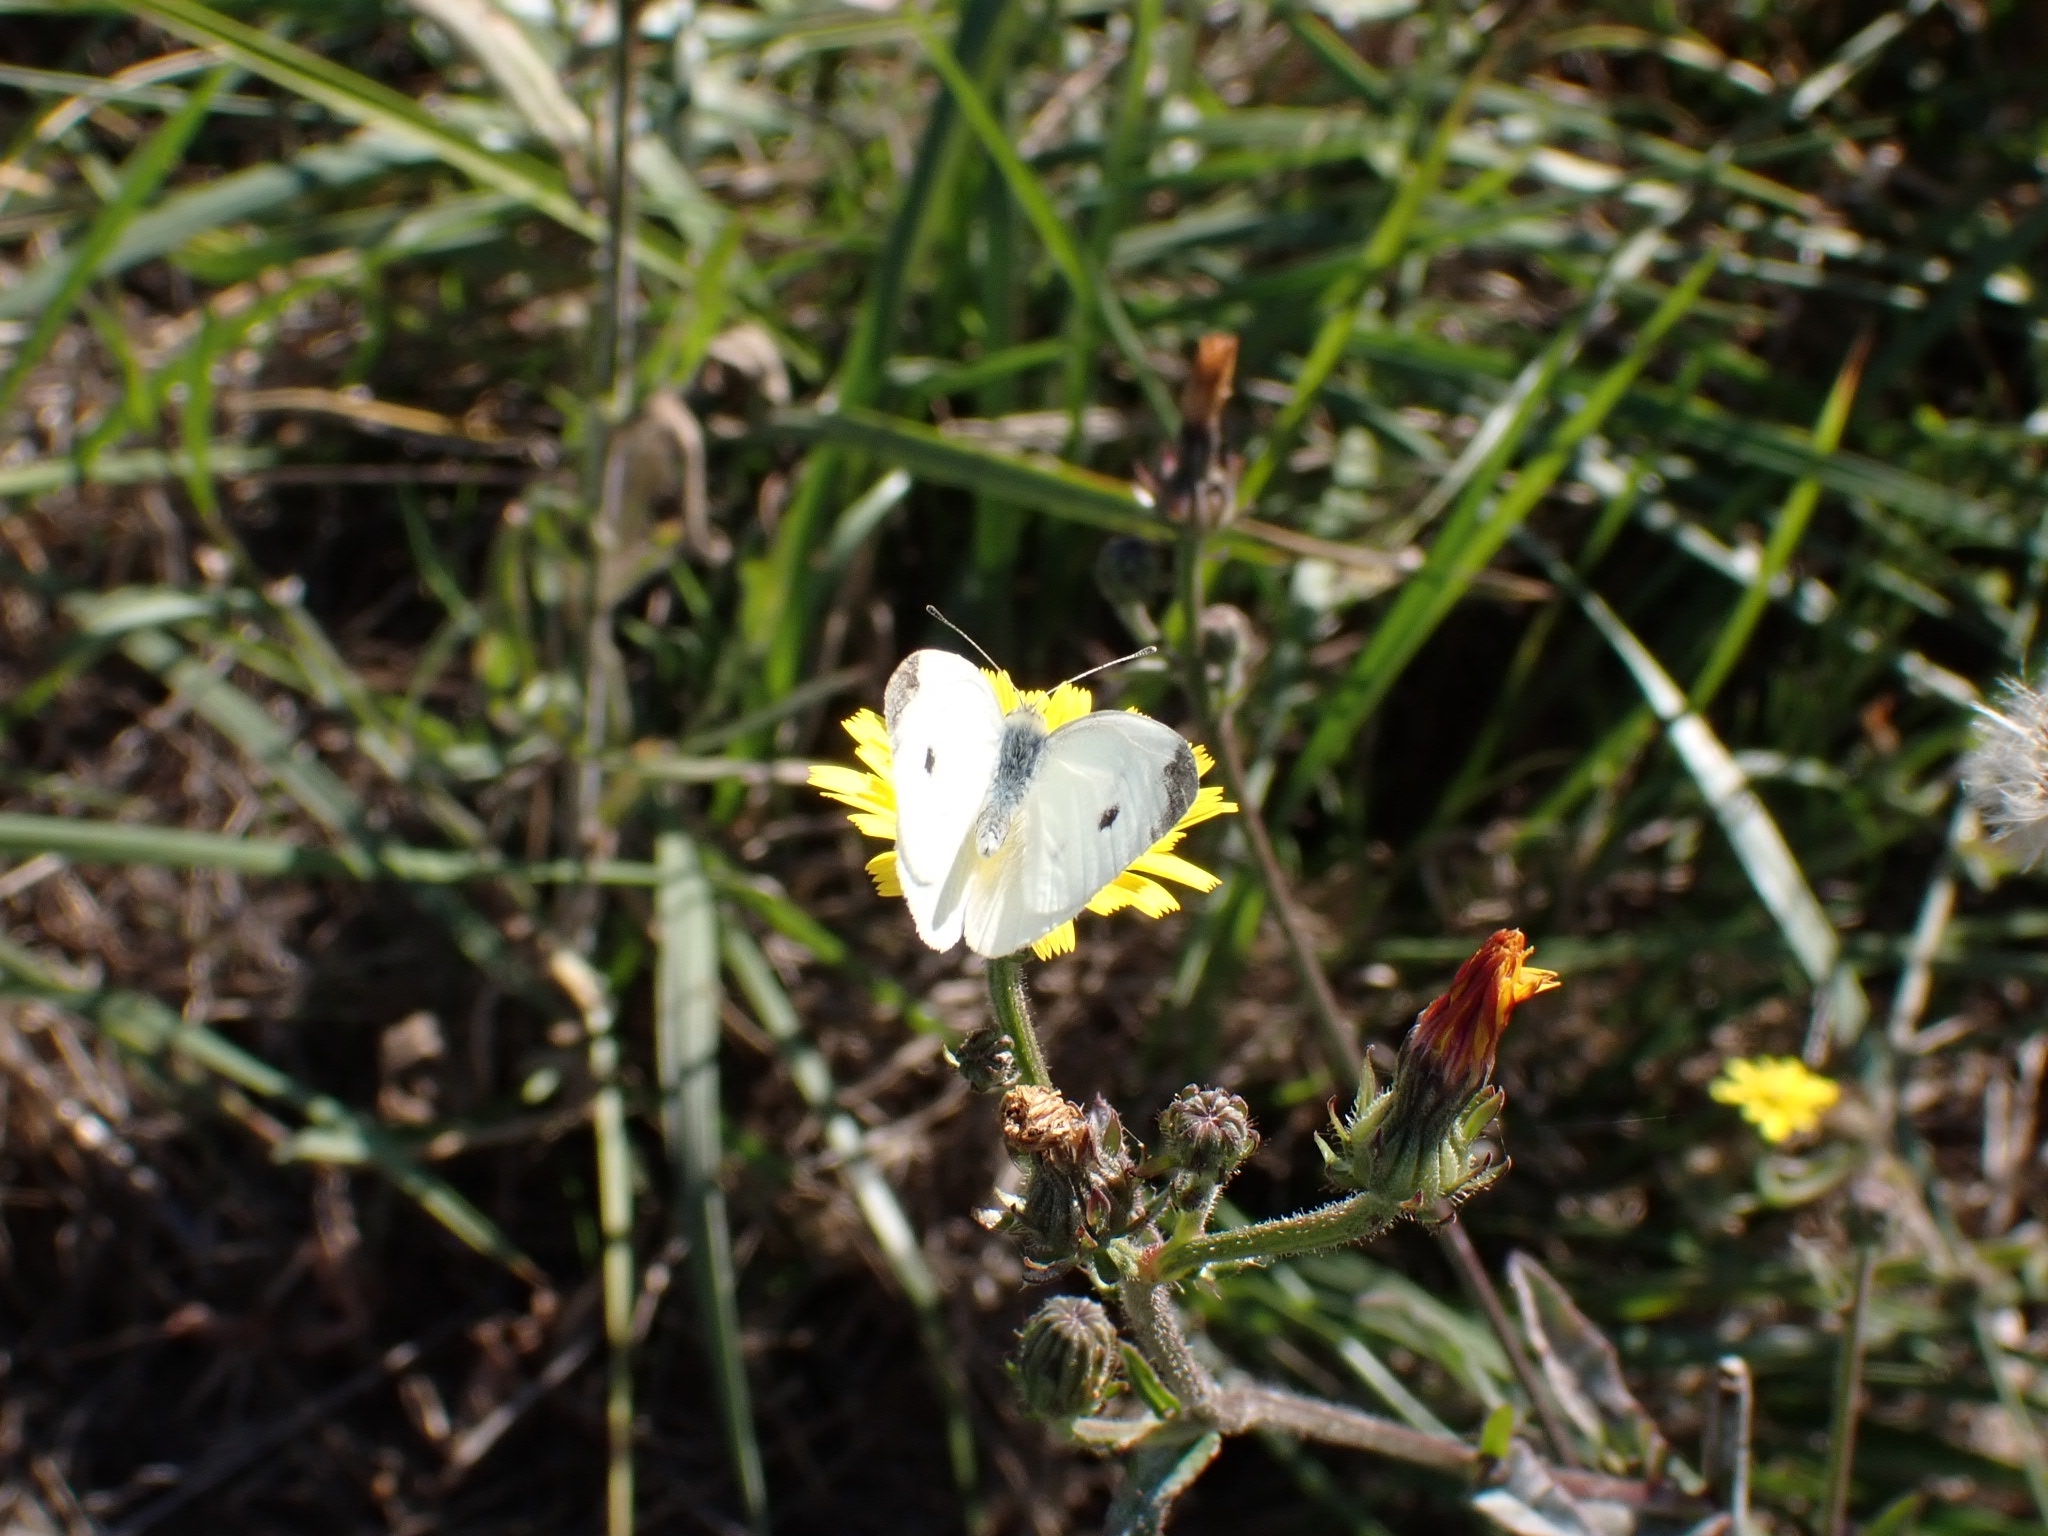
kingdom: Animalia
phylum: Arthropoda
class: Insecta
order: Lepidoptera
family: Pieridae
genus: Pieris
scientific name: Pieris rapae
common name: Small white
